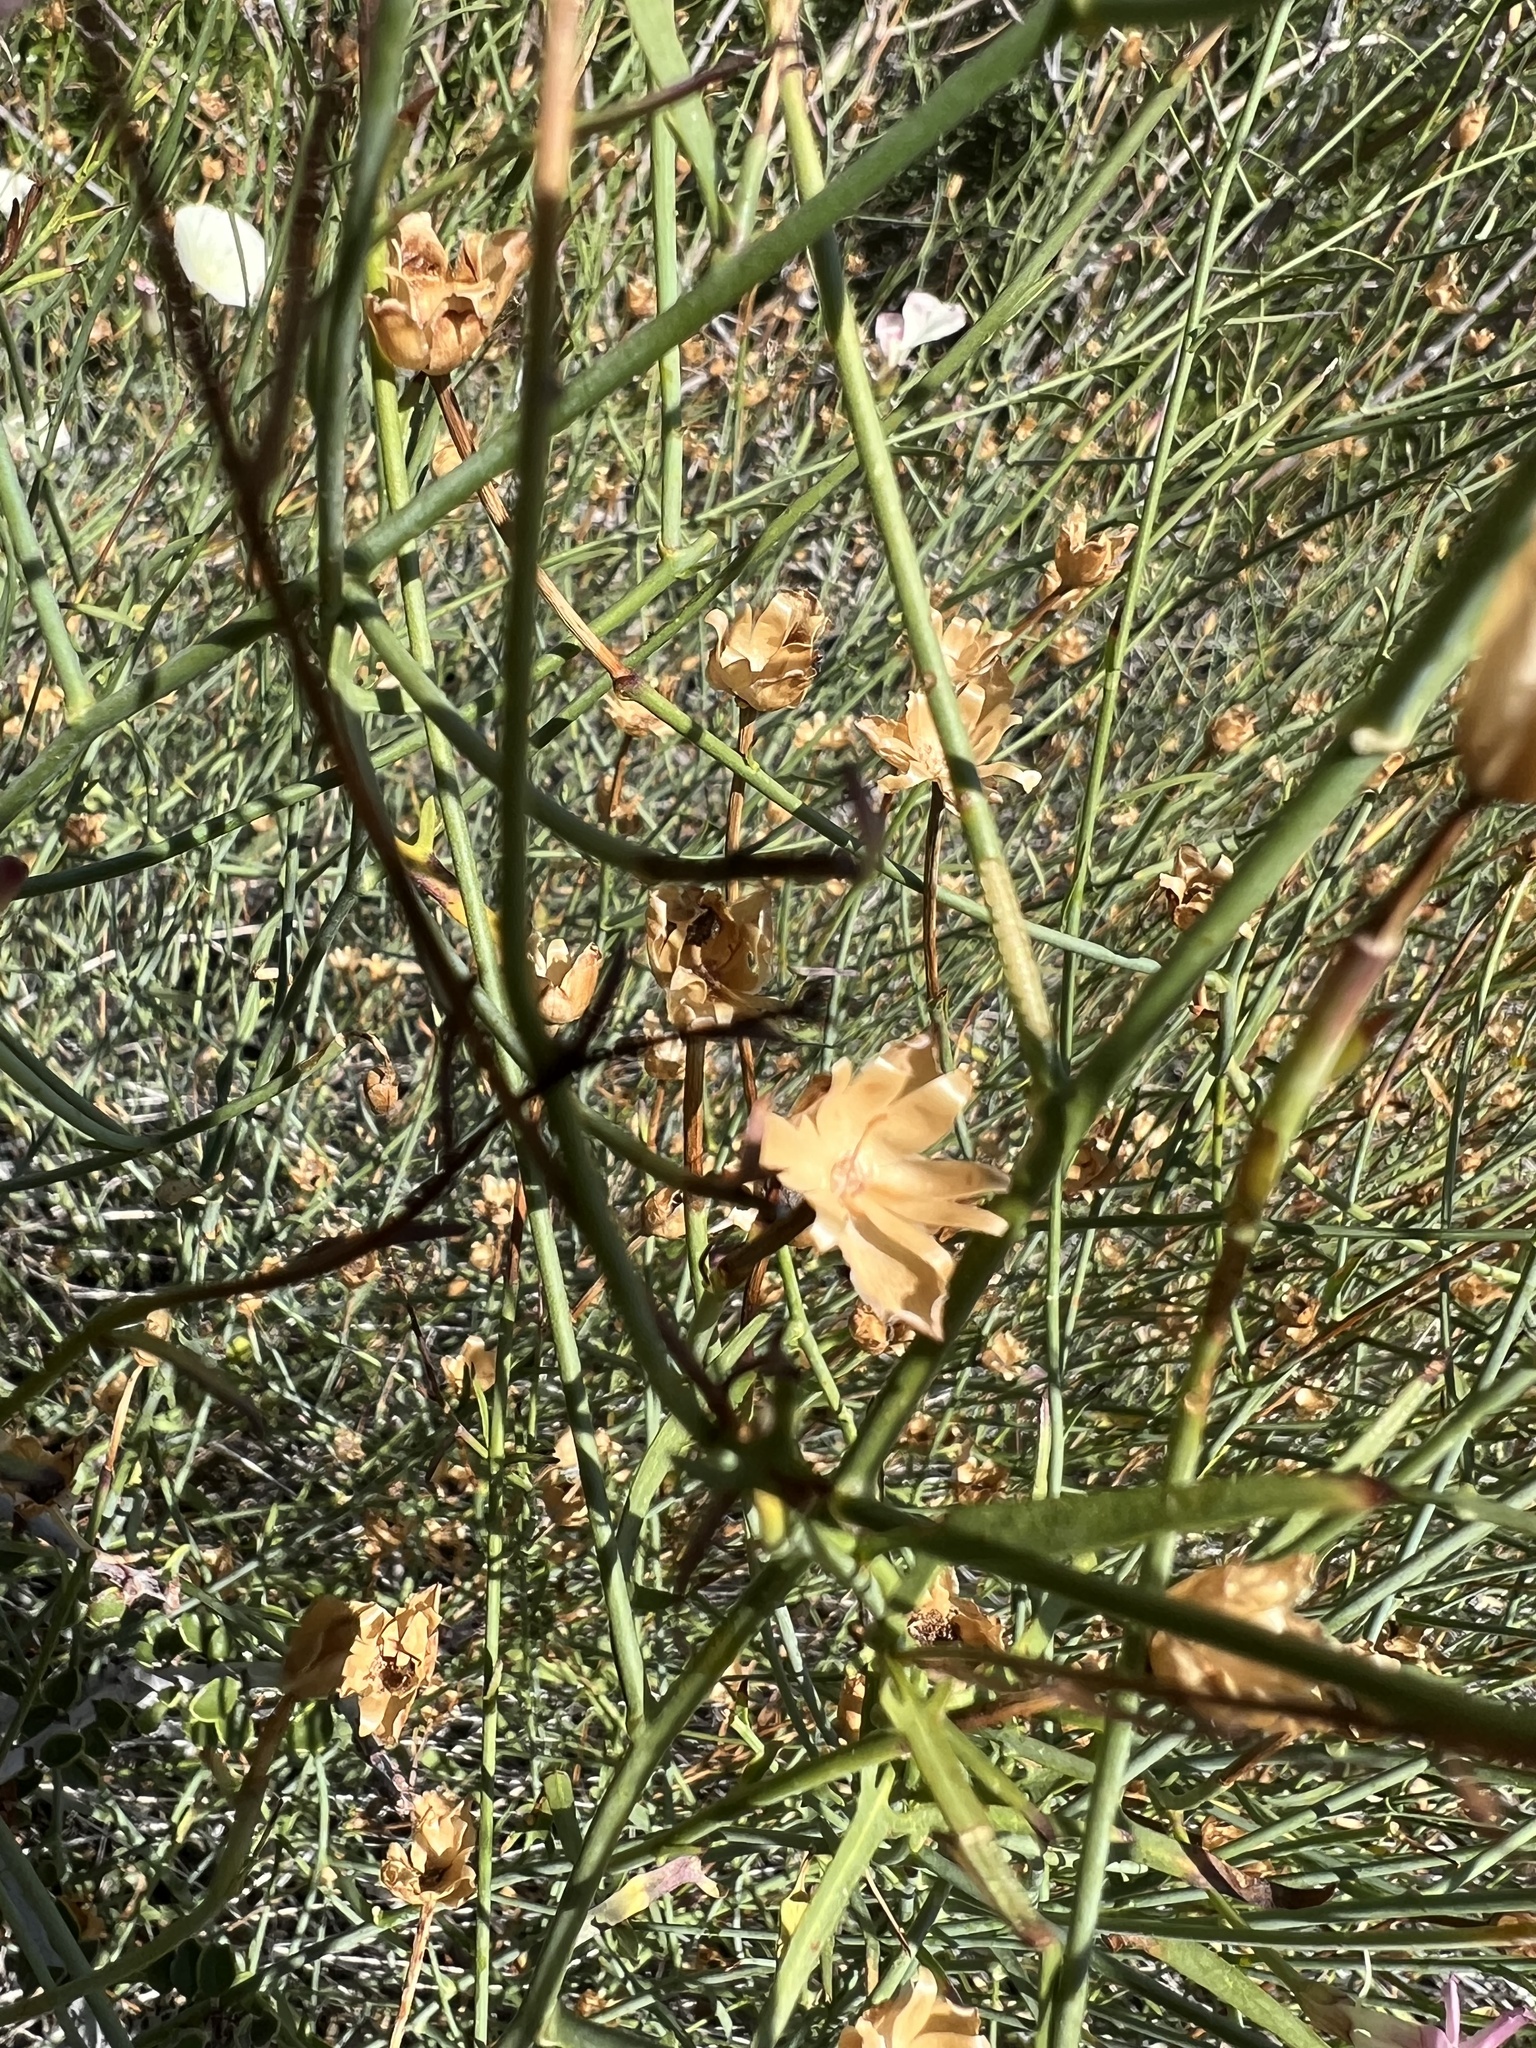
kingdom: Plantae
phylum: Tracheophyta
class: Magnoliopsida
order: Solanales
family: Convolvulaceae
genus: Calystegia
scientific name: Calystegia longipes
